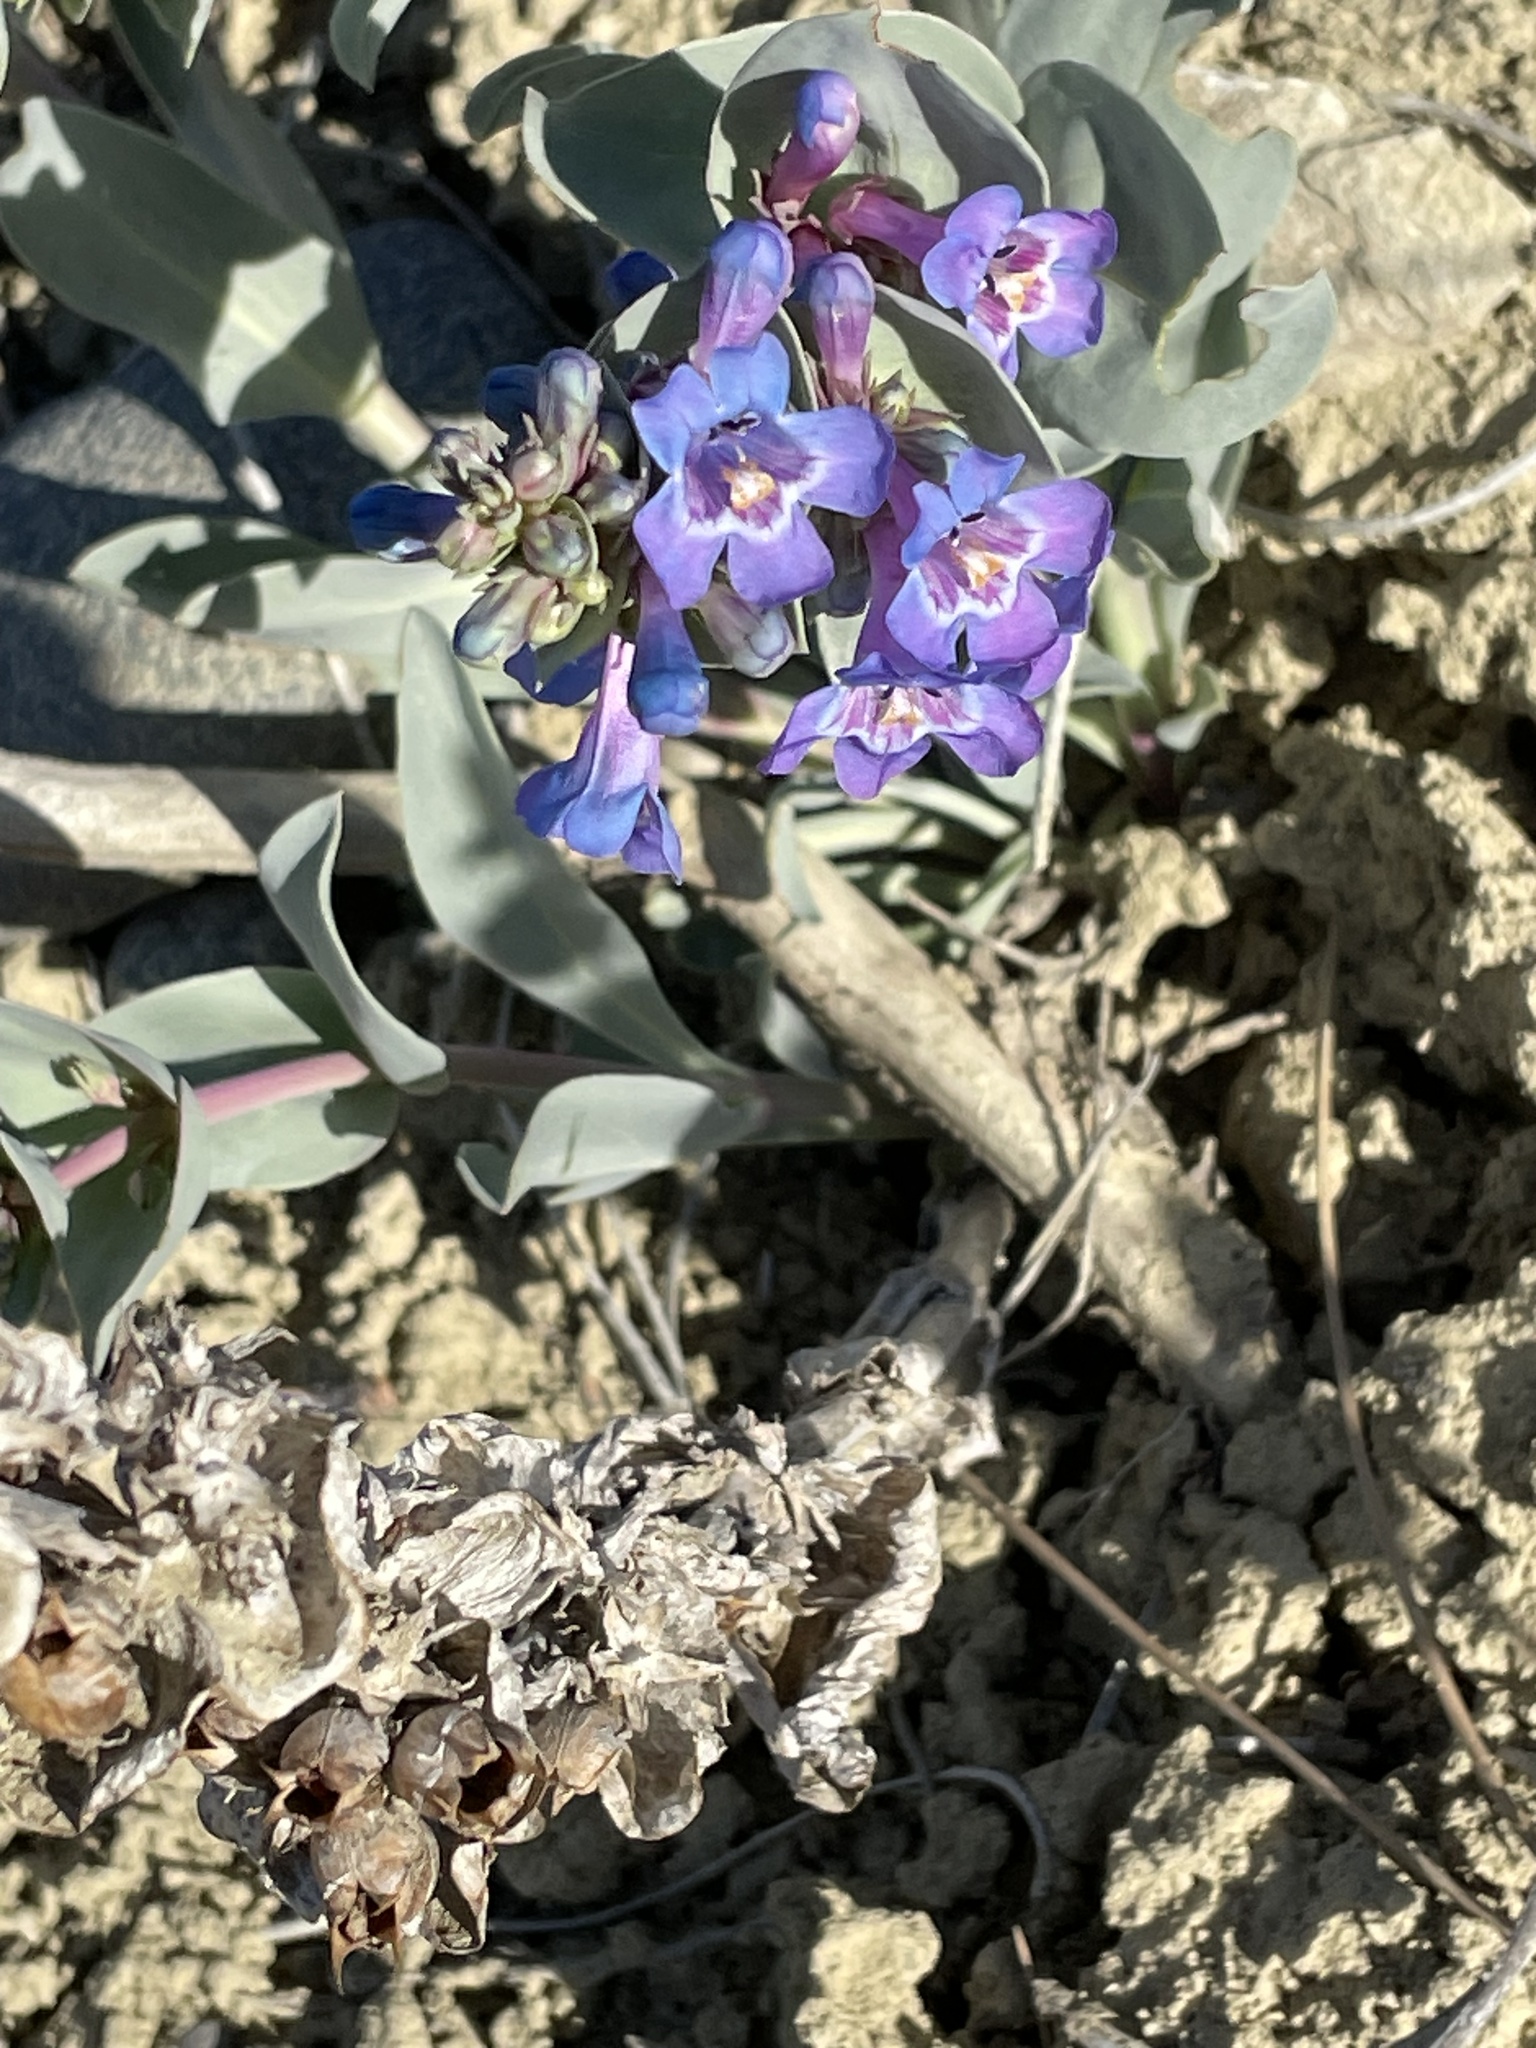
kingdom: Plantae
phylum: Tracheophyta
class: Magnoliopsida
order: Lamiales
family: Plantaginaceae
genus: Penstemon
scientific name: Penstemon nitidus
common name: Shining penstemon
